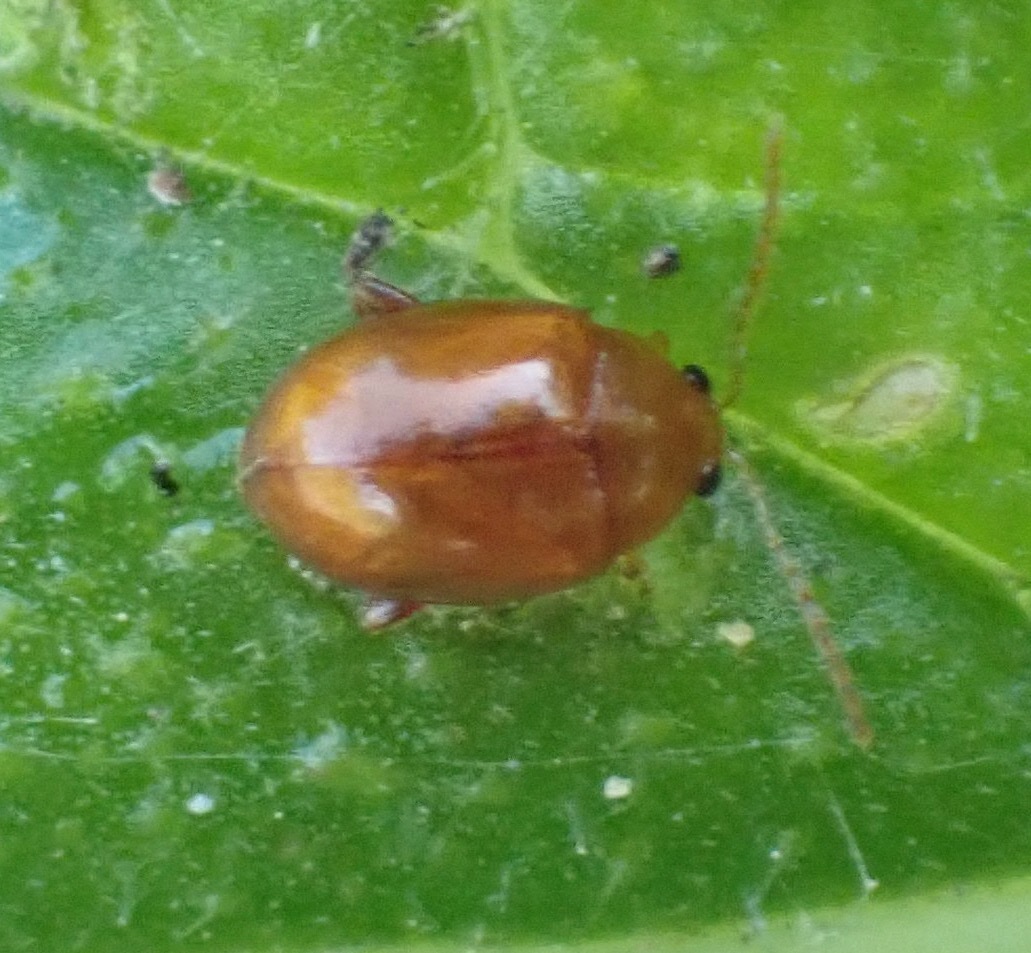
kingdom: Animalia
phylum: Arthropoda
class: Insecta
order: Coleoptera
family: Chrysomelidae
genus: Pistosia
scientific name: Pistosia testacea
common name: Leaf beetle
